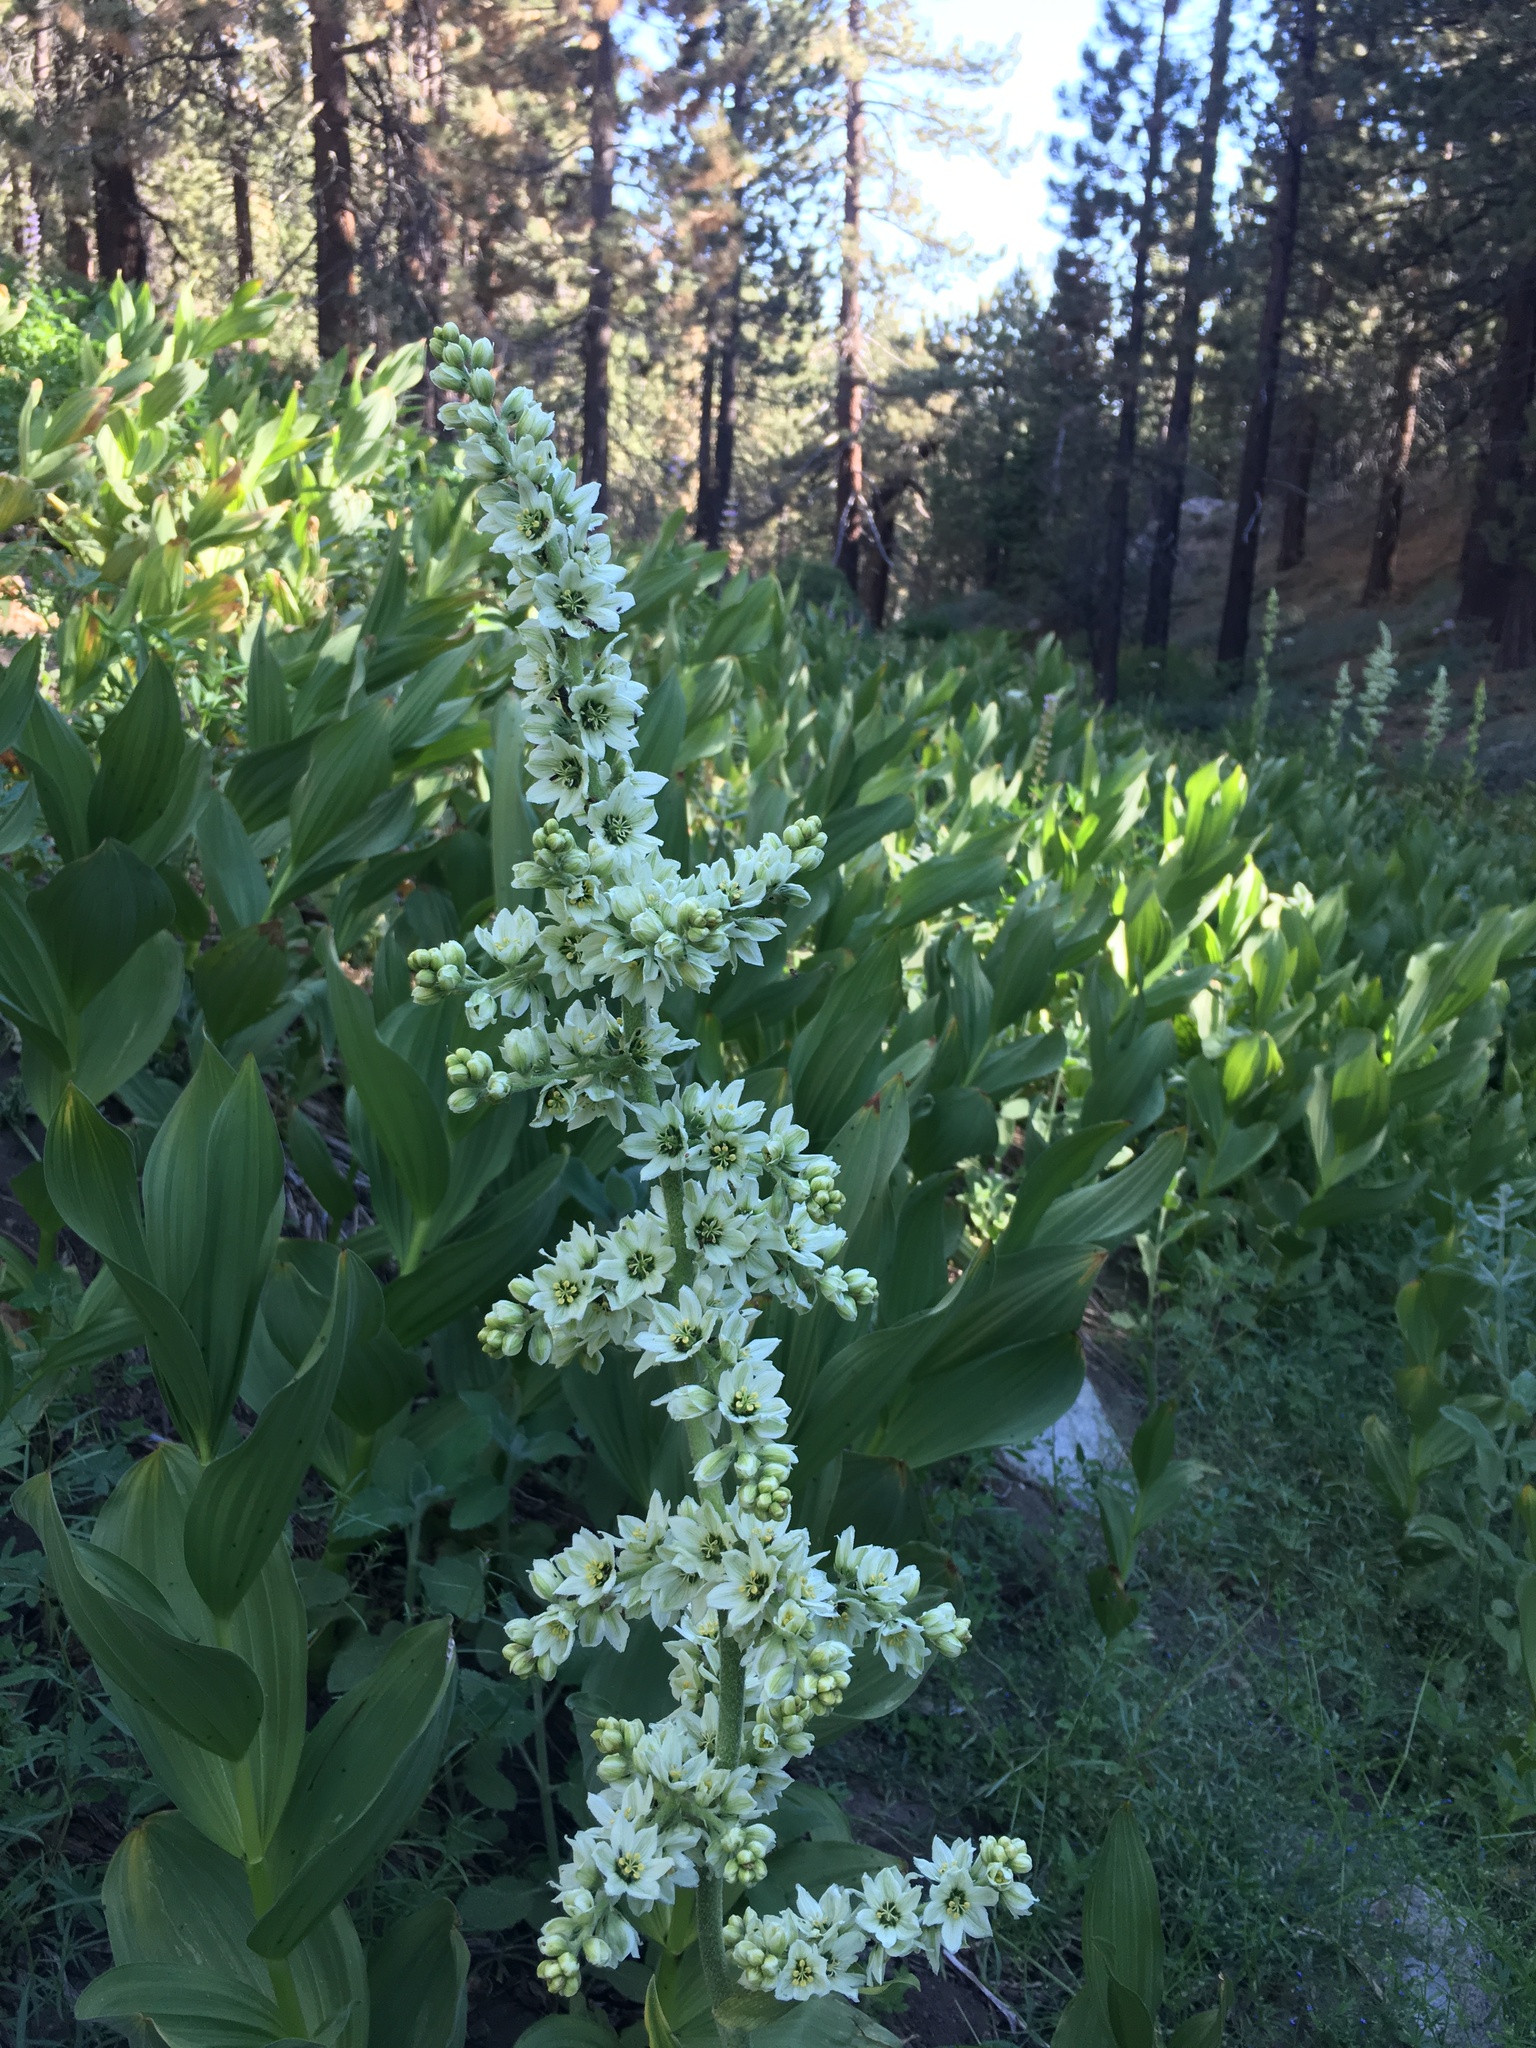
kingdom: Plantae
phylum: Tracheophyta
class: Liliopsida
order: Liliales
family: Melanthiaceae
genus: Veratrum
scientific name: Veratrum californicum
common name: California veratrum
